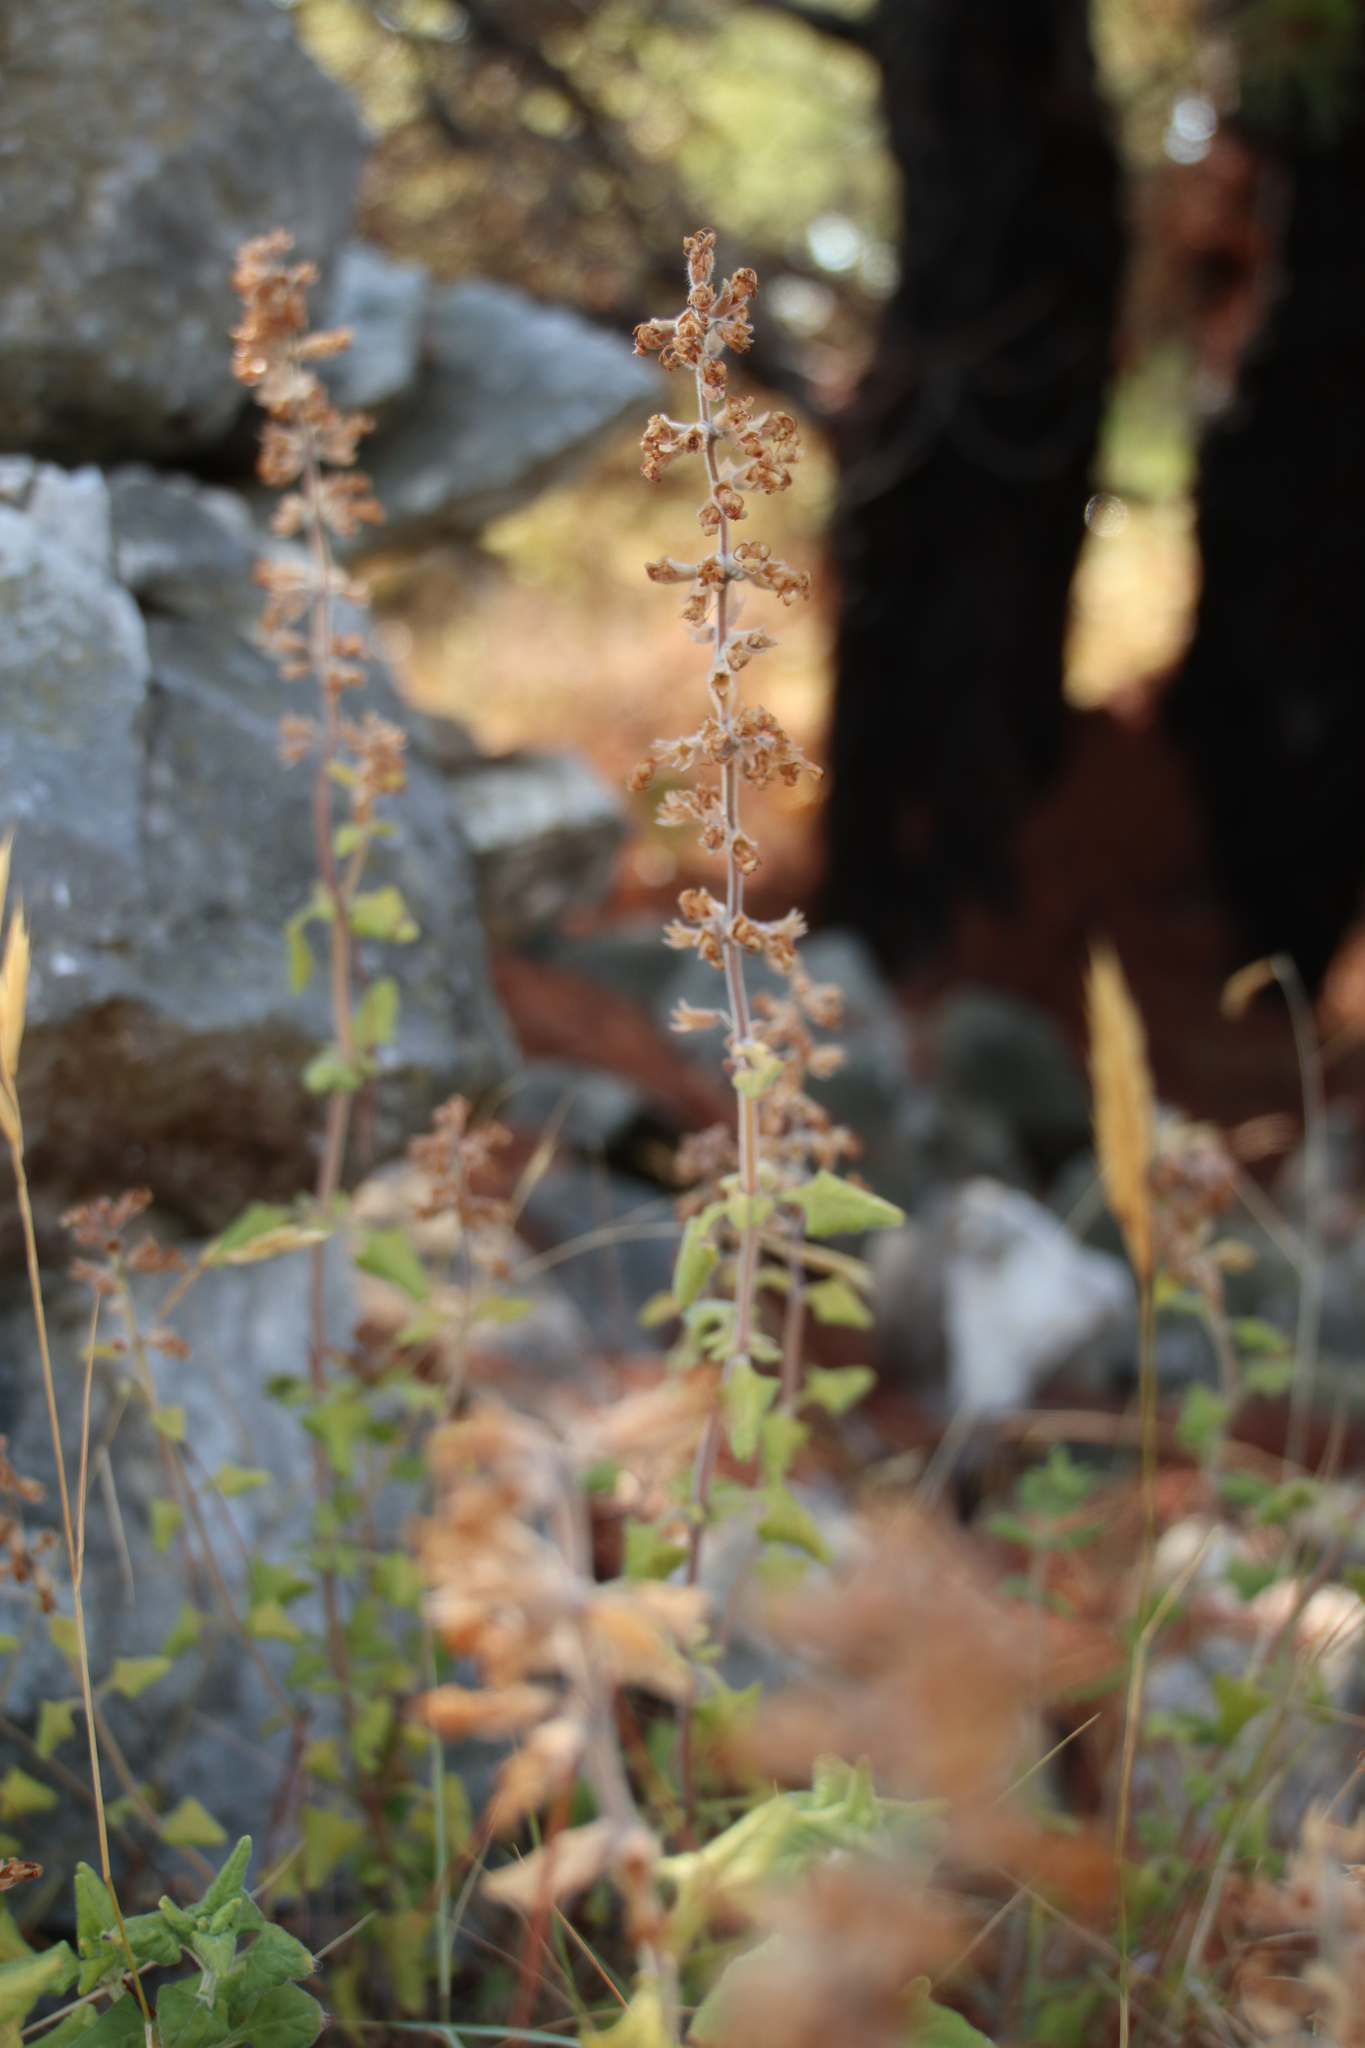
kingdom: Plantae
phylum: Tracheophyta
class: Magnoliopsida
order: Lamiales
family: Lamiaceae
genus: Teucrium
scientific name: Teucrium flavum
